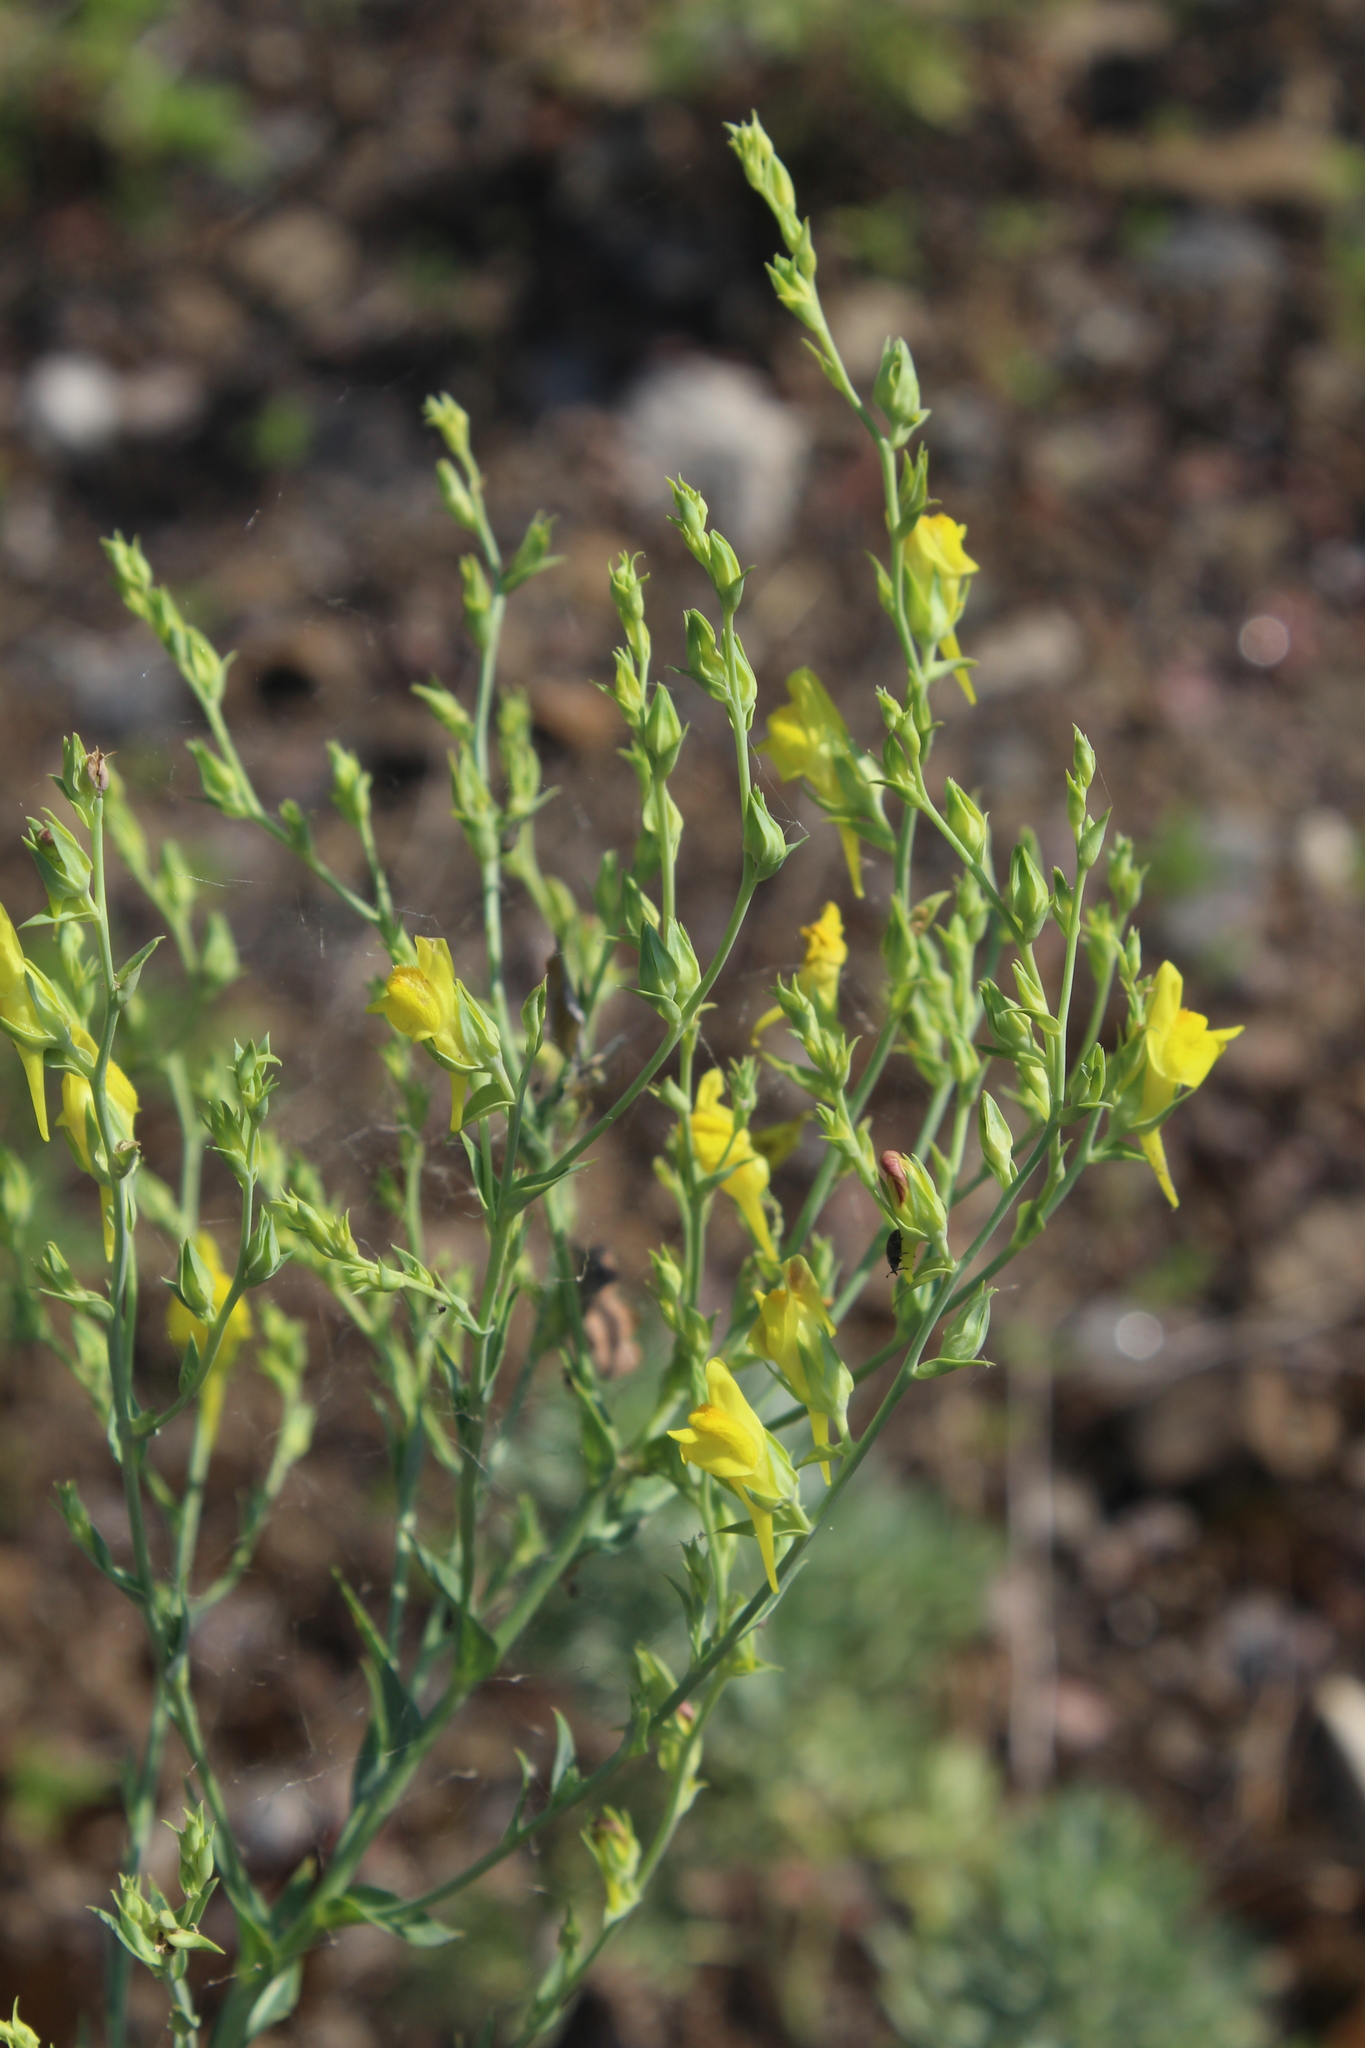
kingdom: Plantae
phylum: Tracheophyta
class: Magnoliopsida
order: Lamiales
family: Plantaginaceae
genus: Linaria
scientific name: Linaria genistifolia
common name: Broomleaf toadflax
